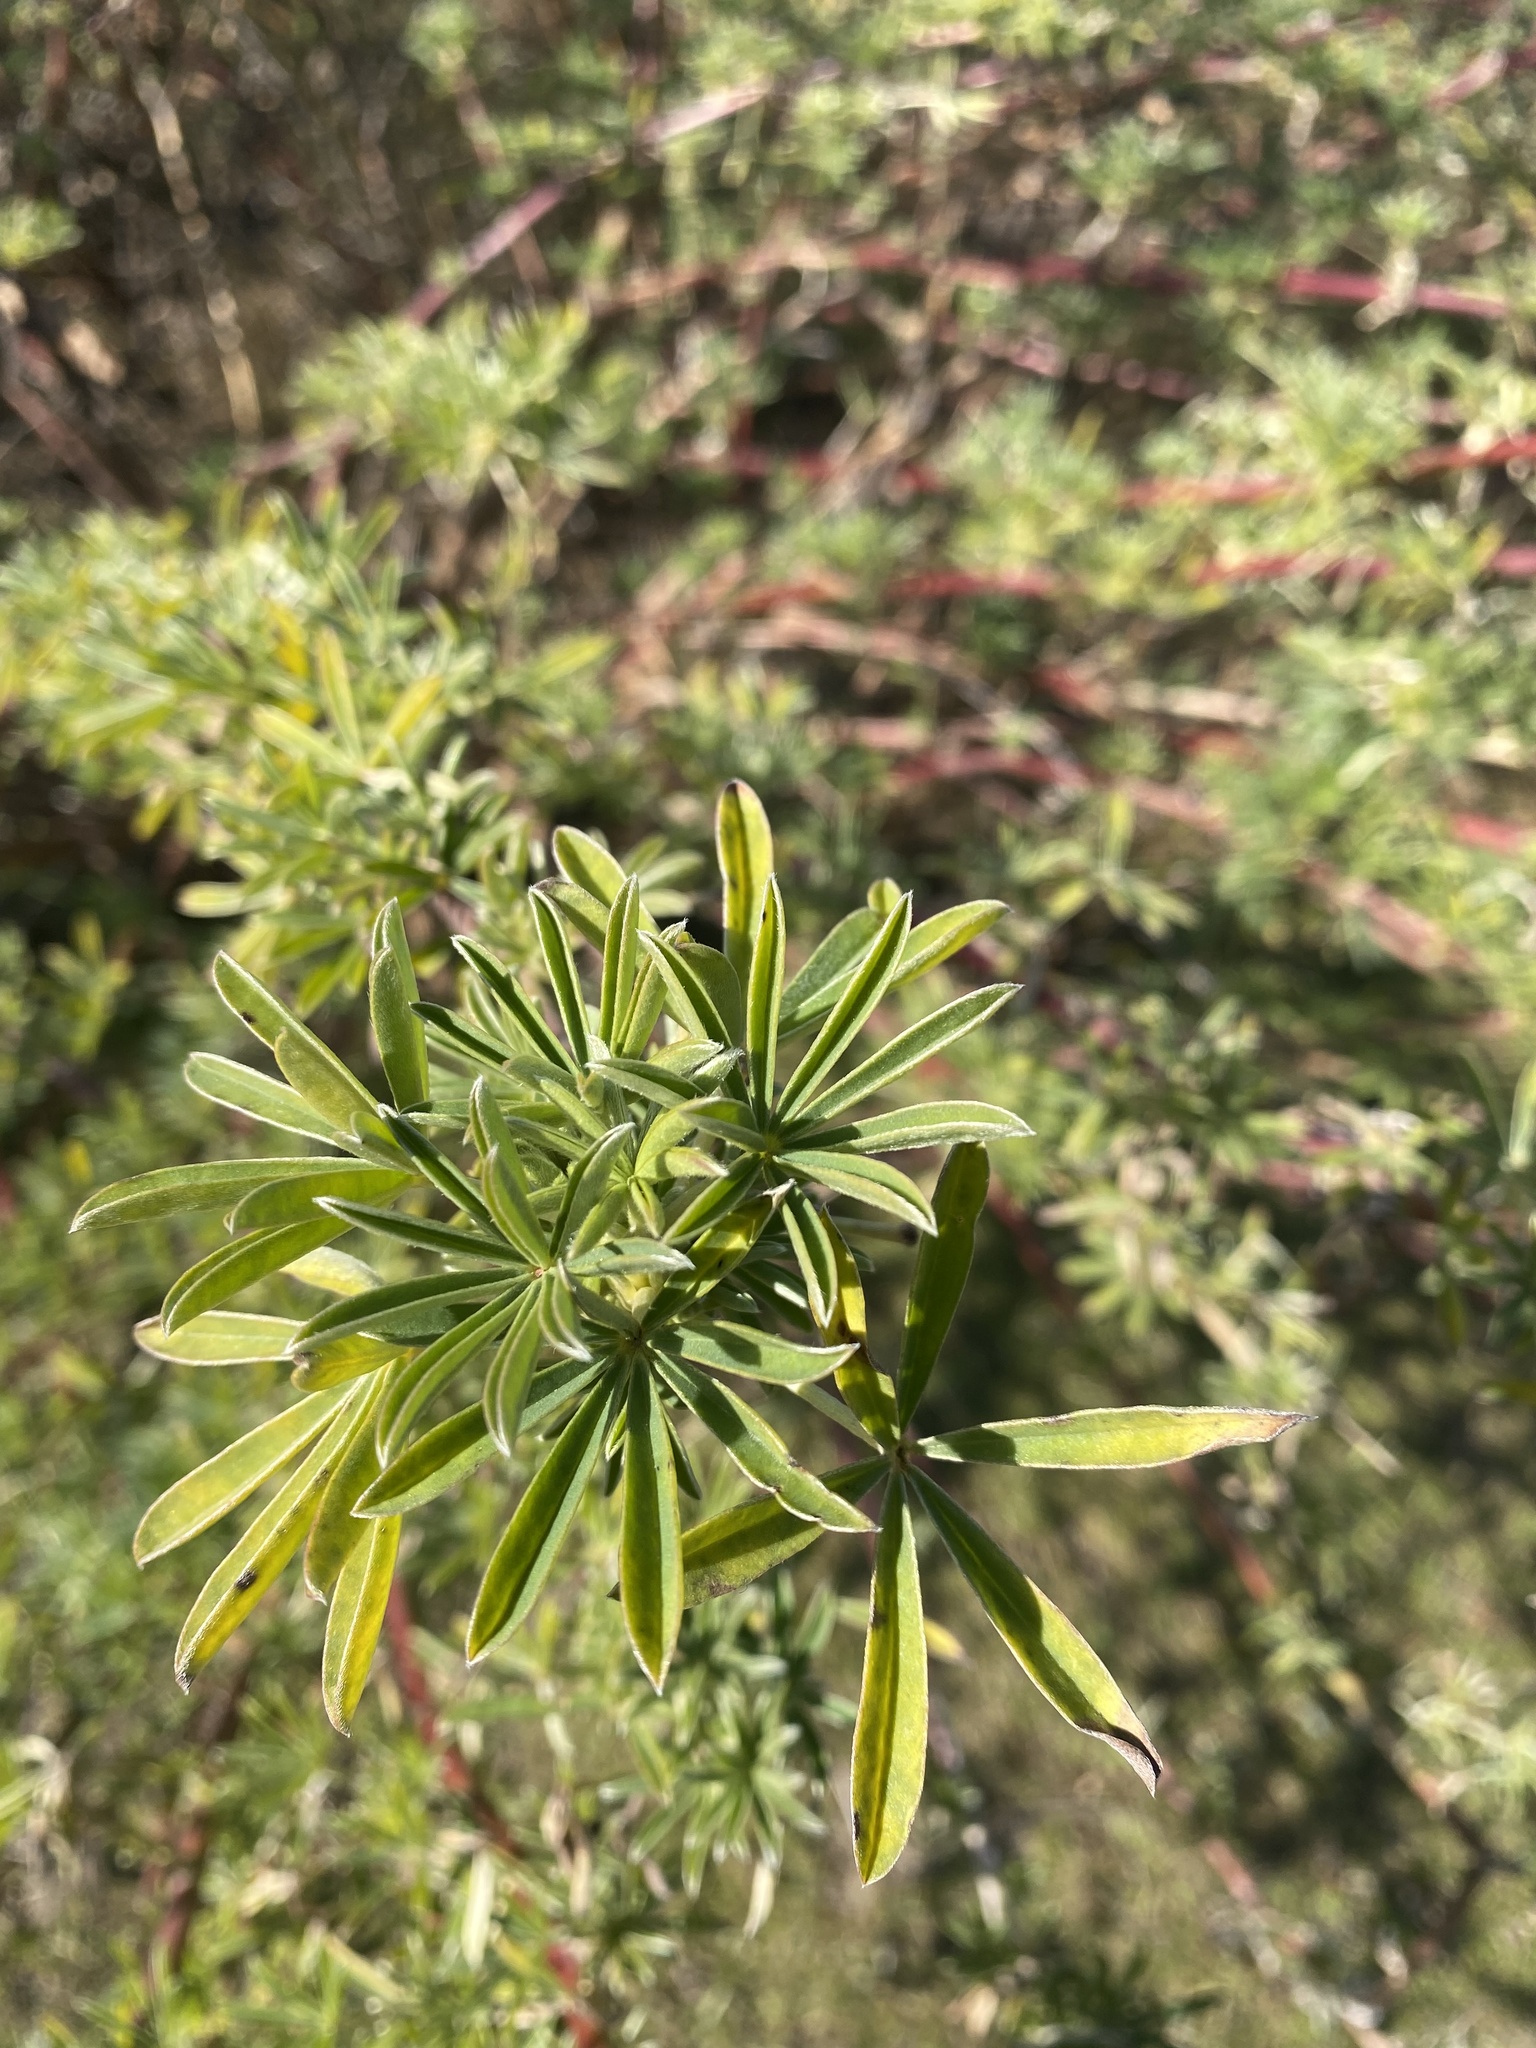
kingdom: Plantae
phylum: Tracheophyta
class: Magnoliopsida
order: Fabales
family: Fabaceae
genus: Lupinus
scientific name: Lupinus arboreus
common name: Yellow bush lupine
